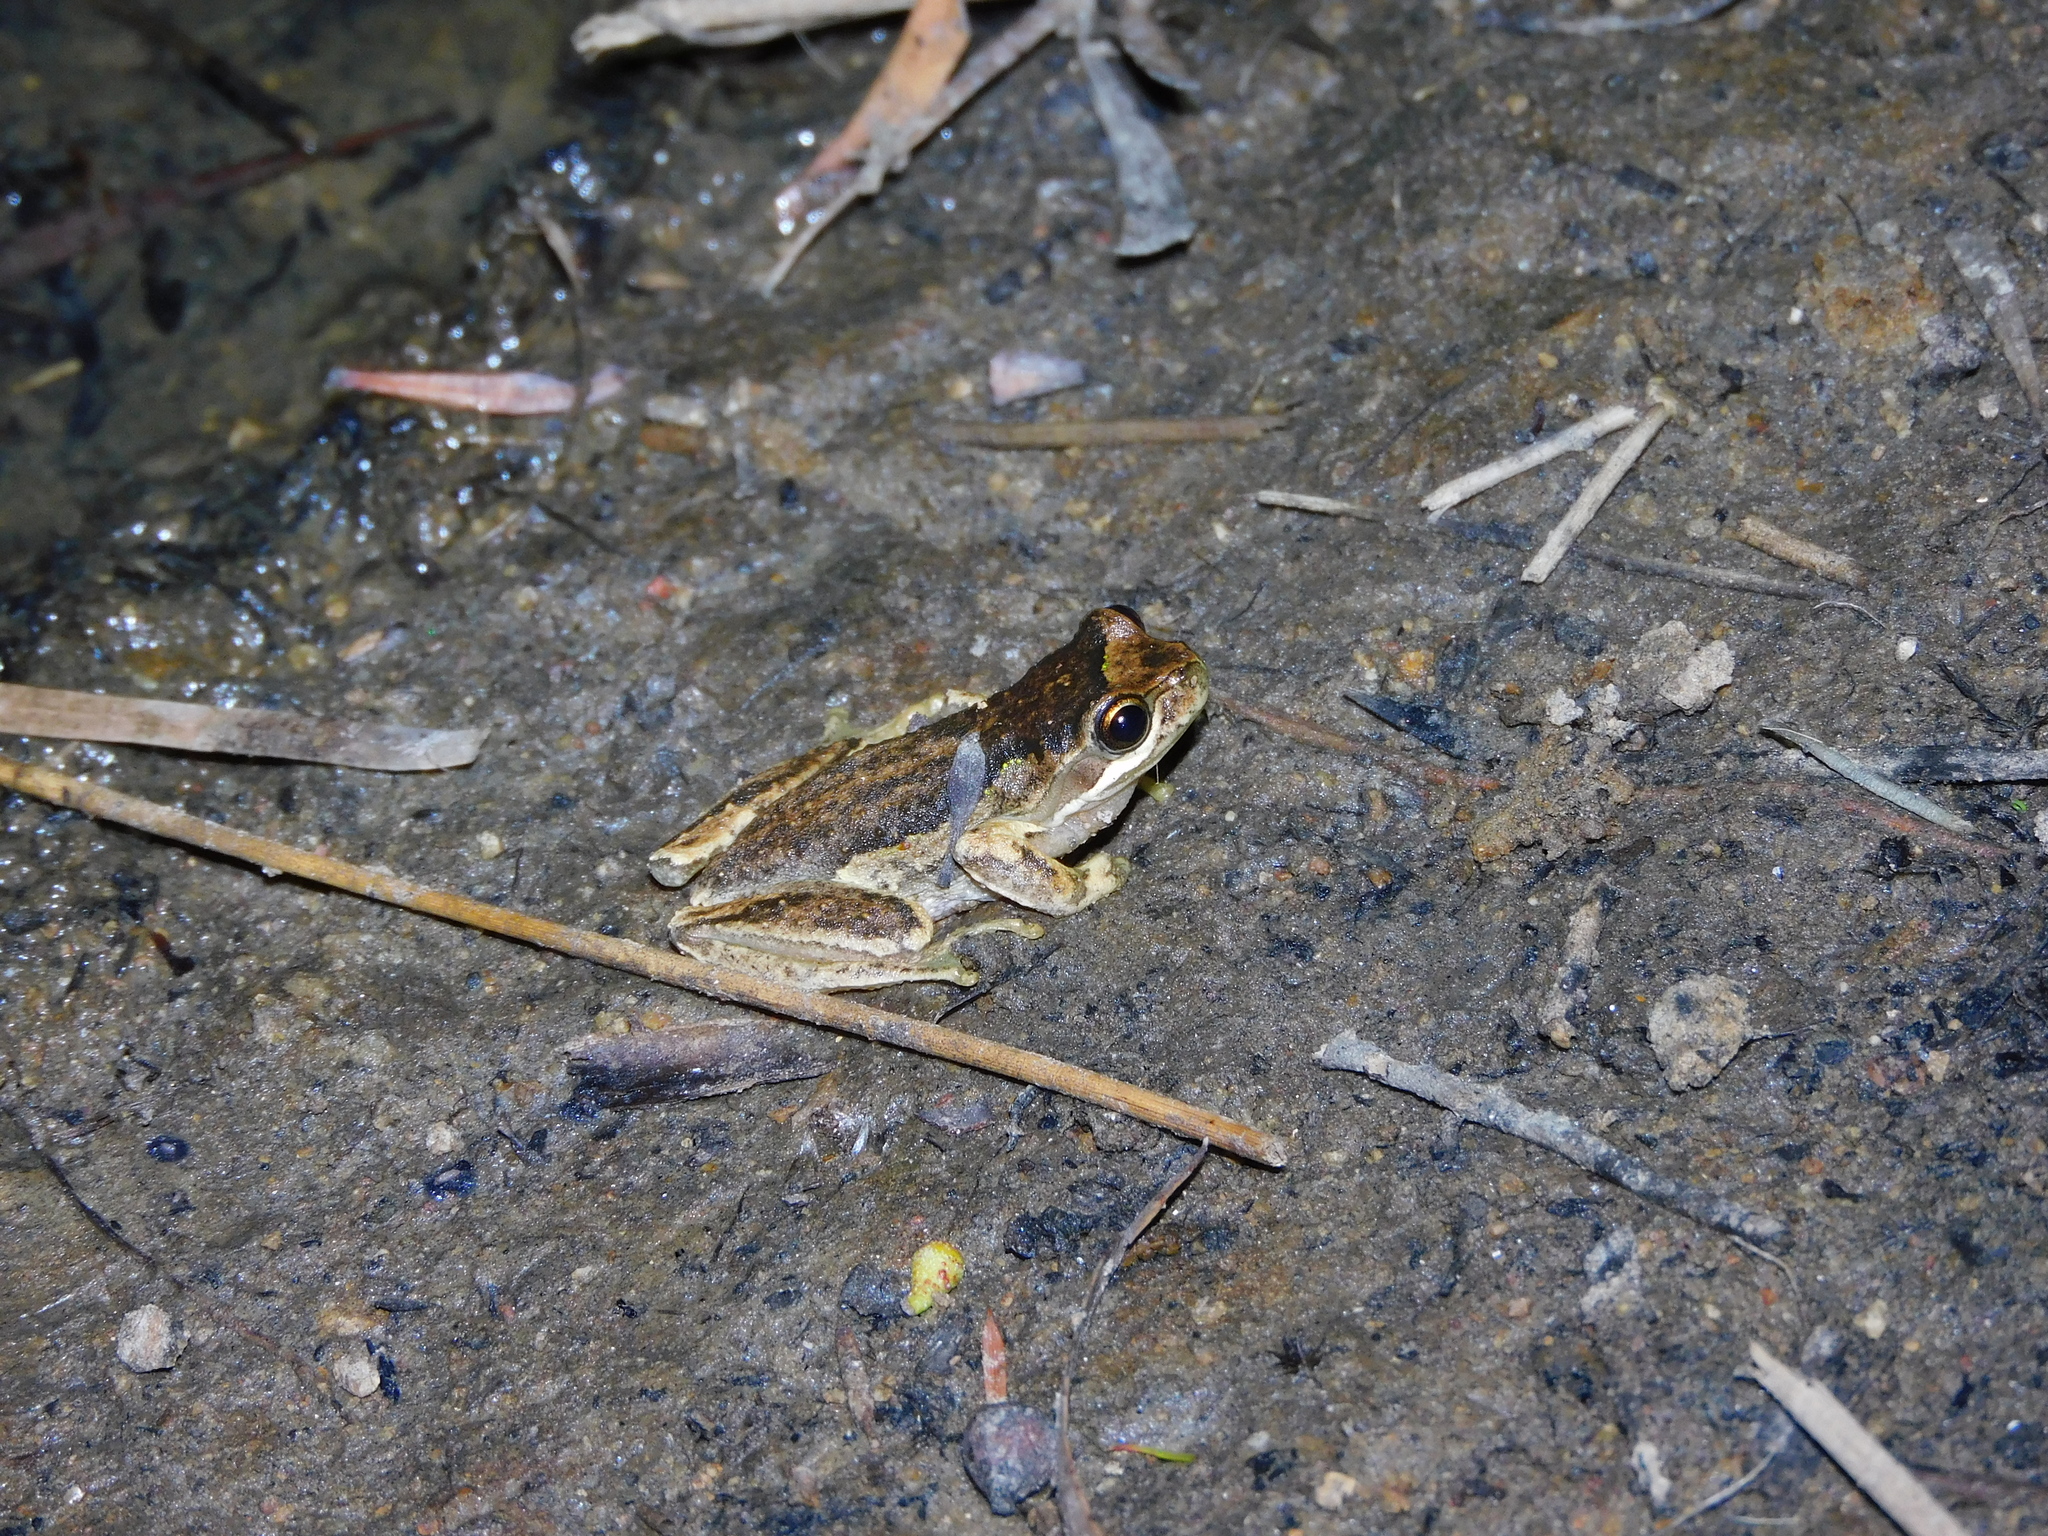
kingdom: Animalia
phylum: Chordata
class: Amphibia
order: Anura
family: Pelodryadidae
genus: Litoria
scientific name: Litoria ewingii
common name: Southern brown tree frog
